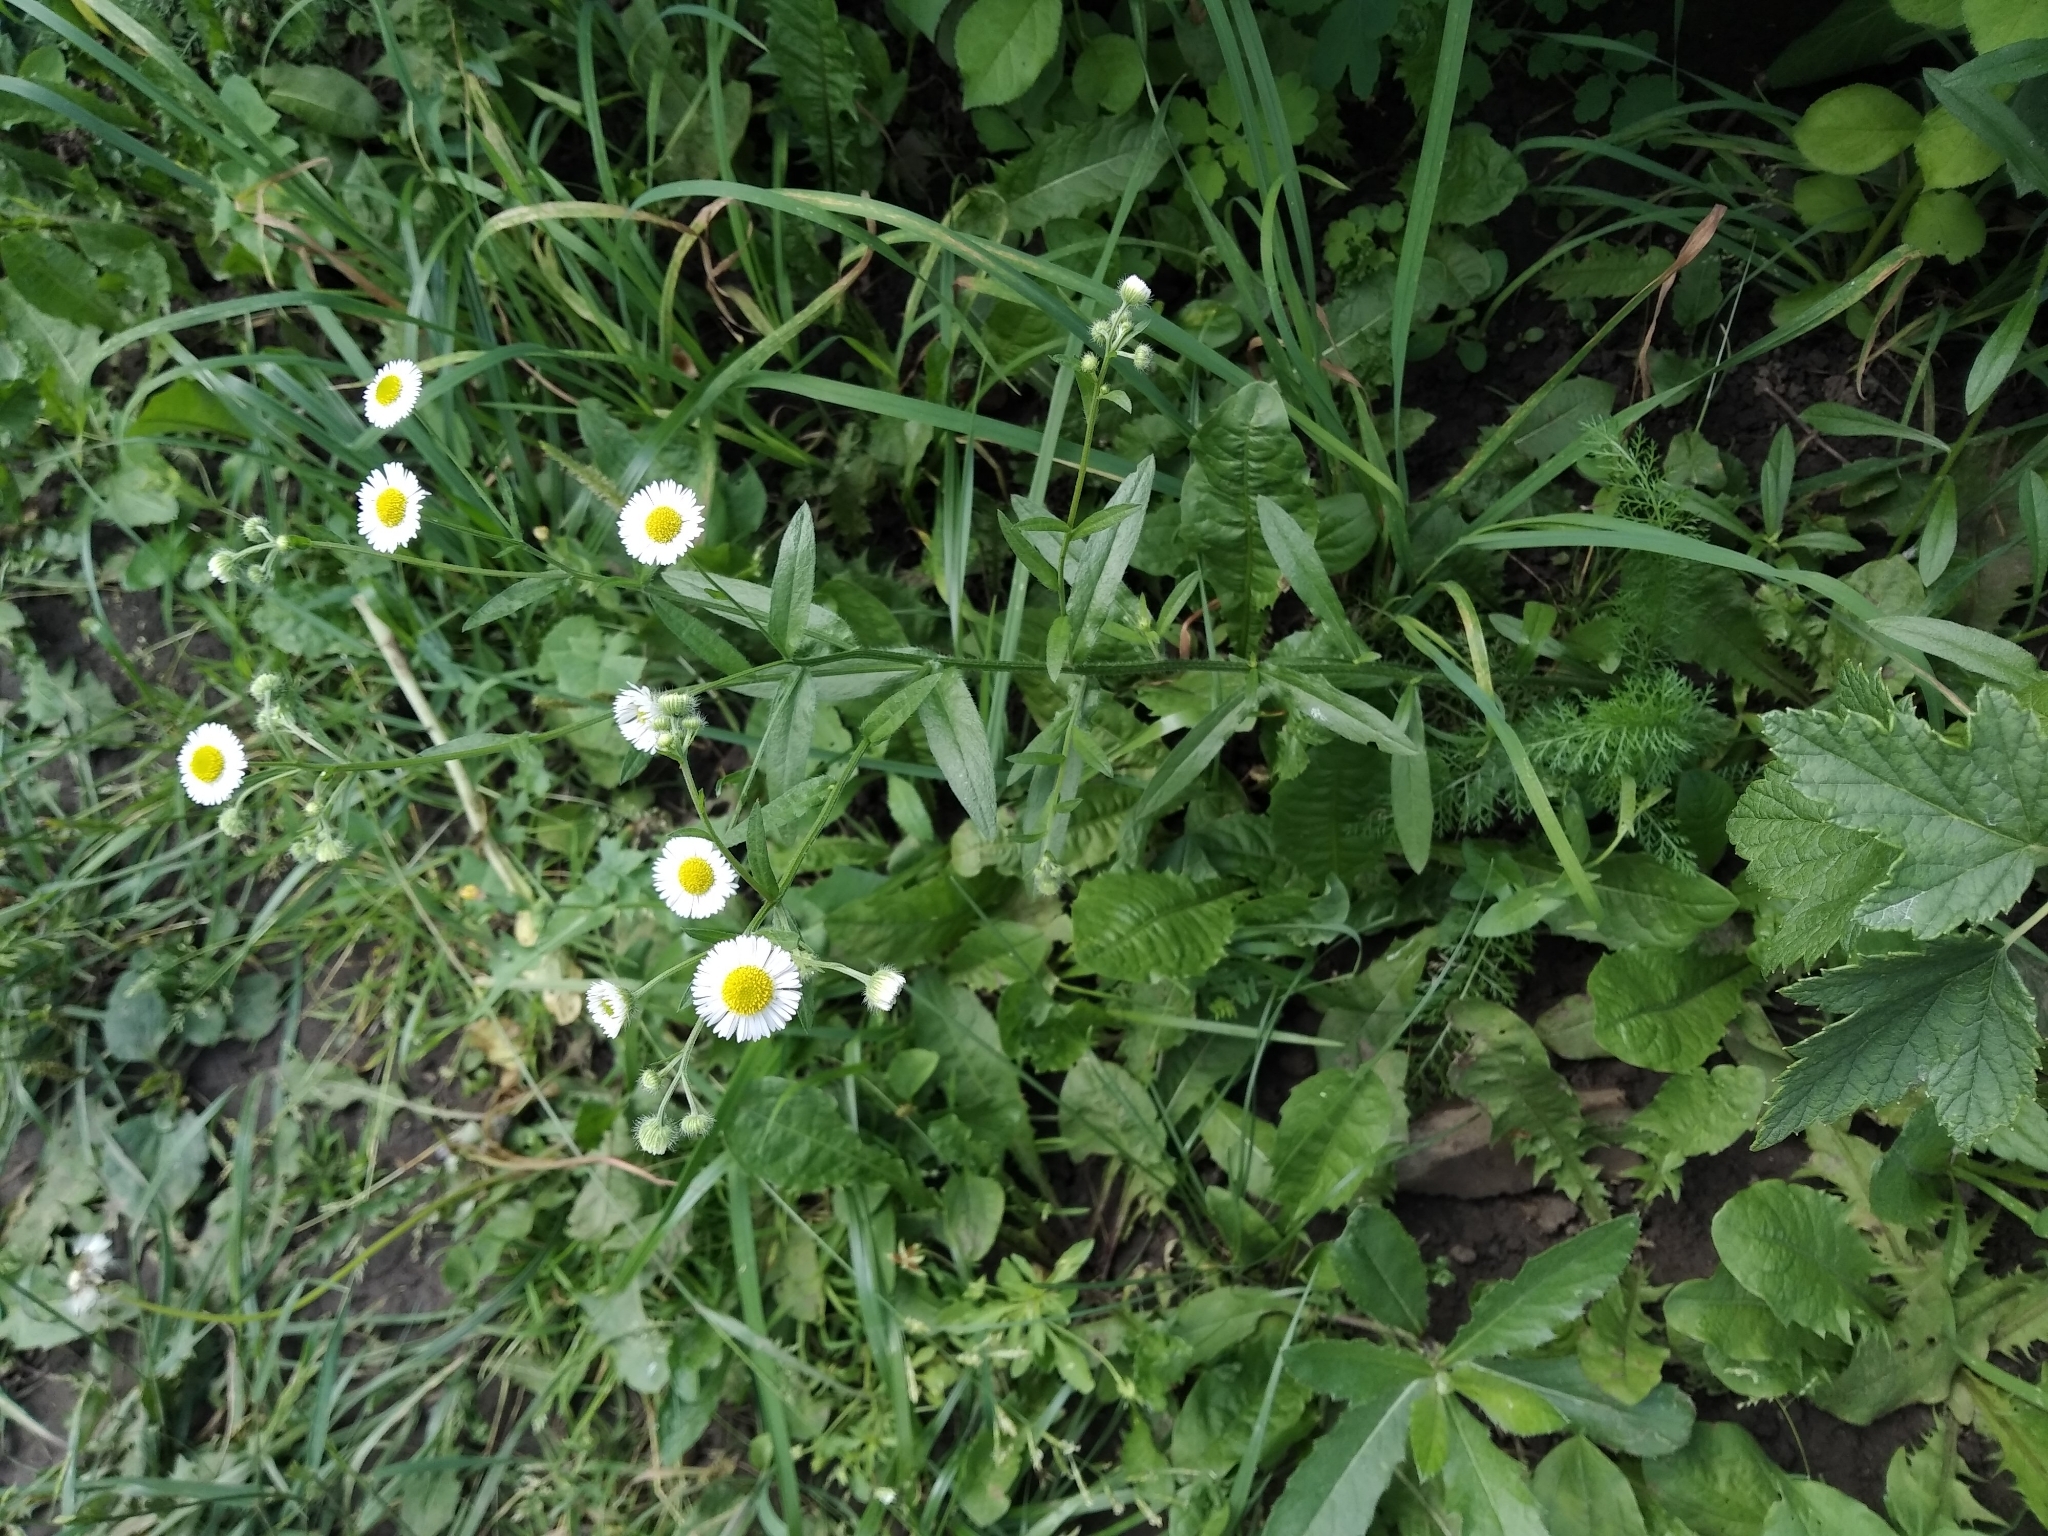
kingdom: Plantae
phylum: Tracheophyta
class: Magnoliopsida
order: Asterales
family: Asteraceae
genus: Erigeron
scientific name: Erigeron annuus
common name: Tall fleabane
